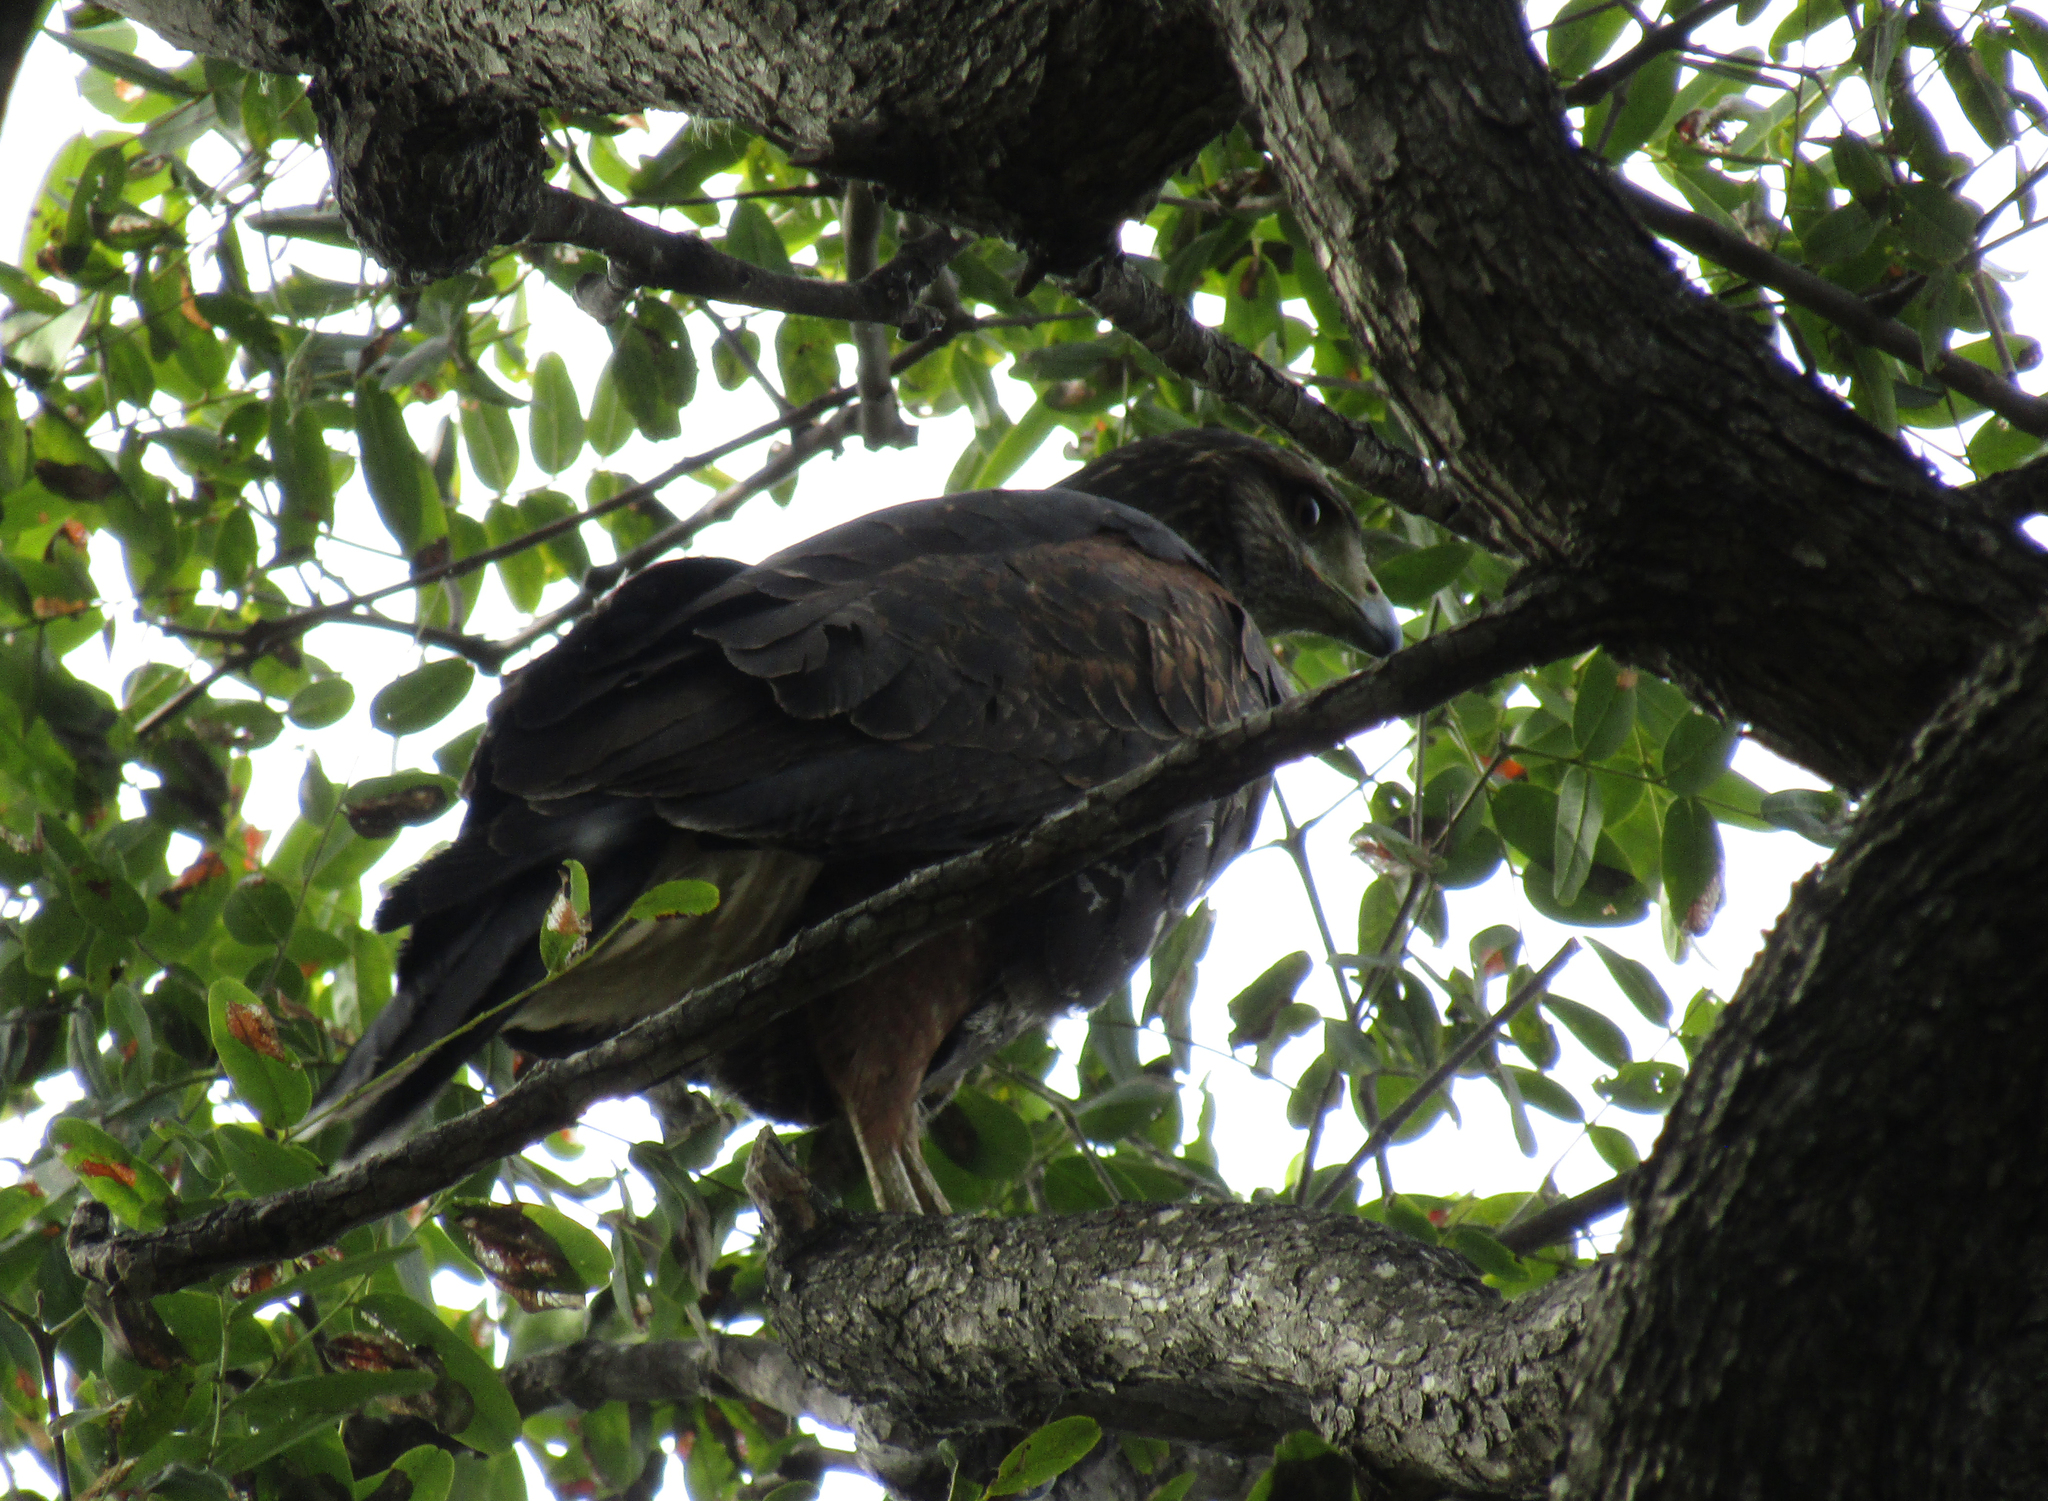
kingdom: Animalia
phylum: Chordata
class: Aves
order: Accipitriformes
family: Accipitridae
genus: Parabuteo
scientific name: Parabuteo unicinctus
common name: Harris's hawk
